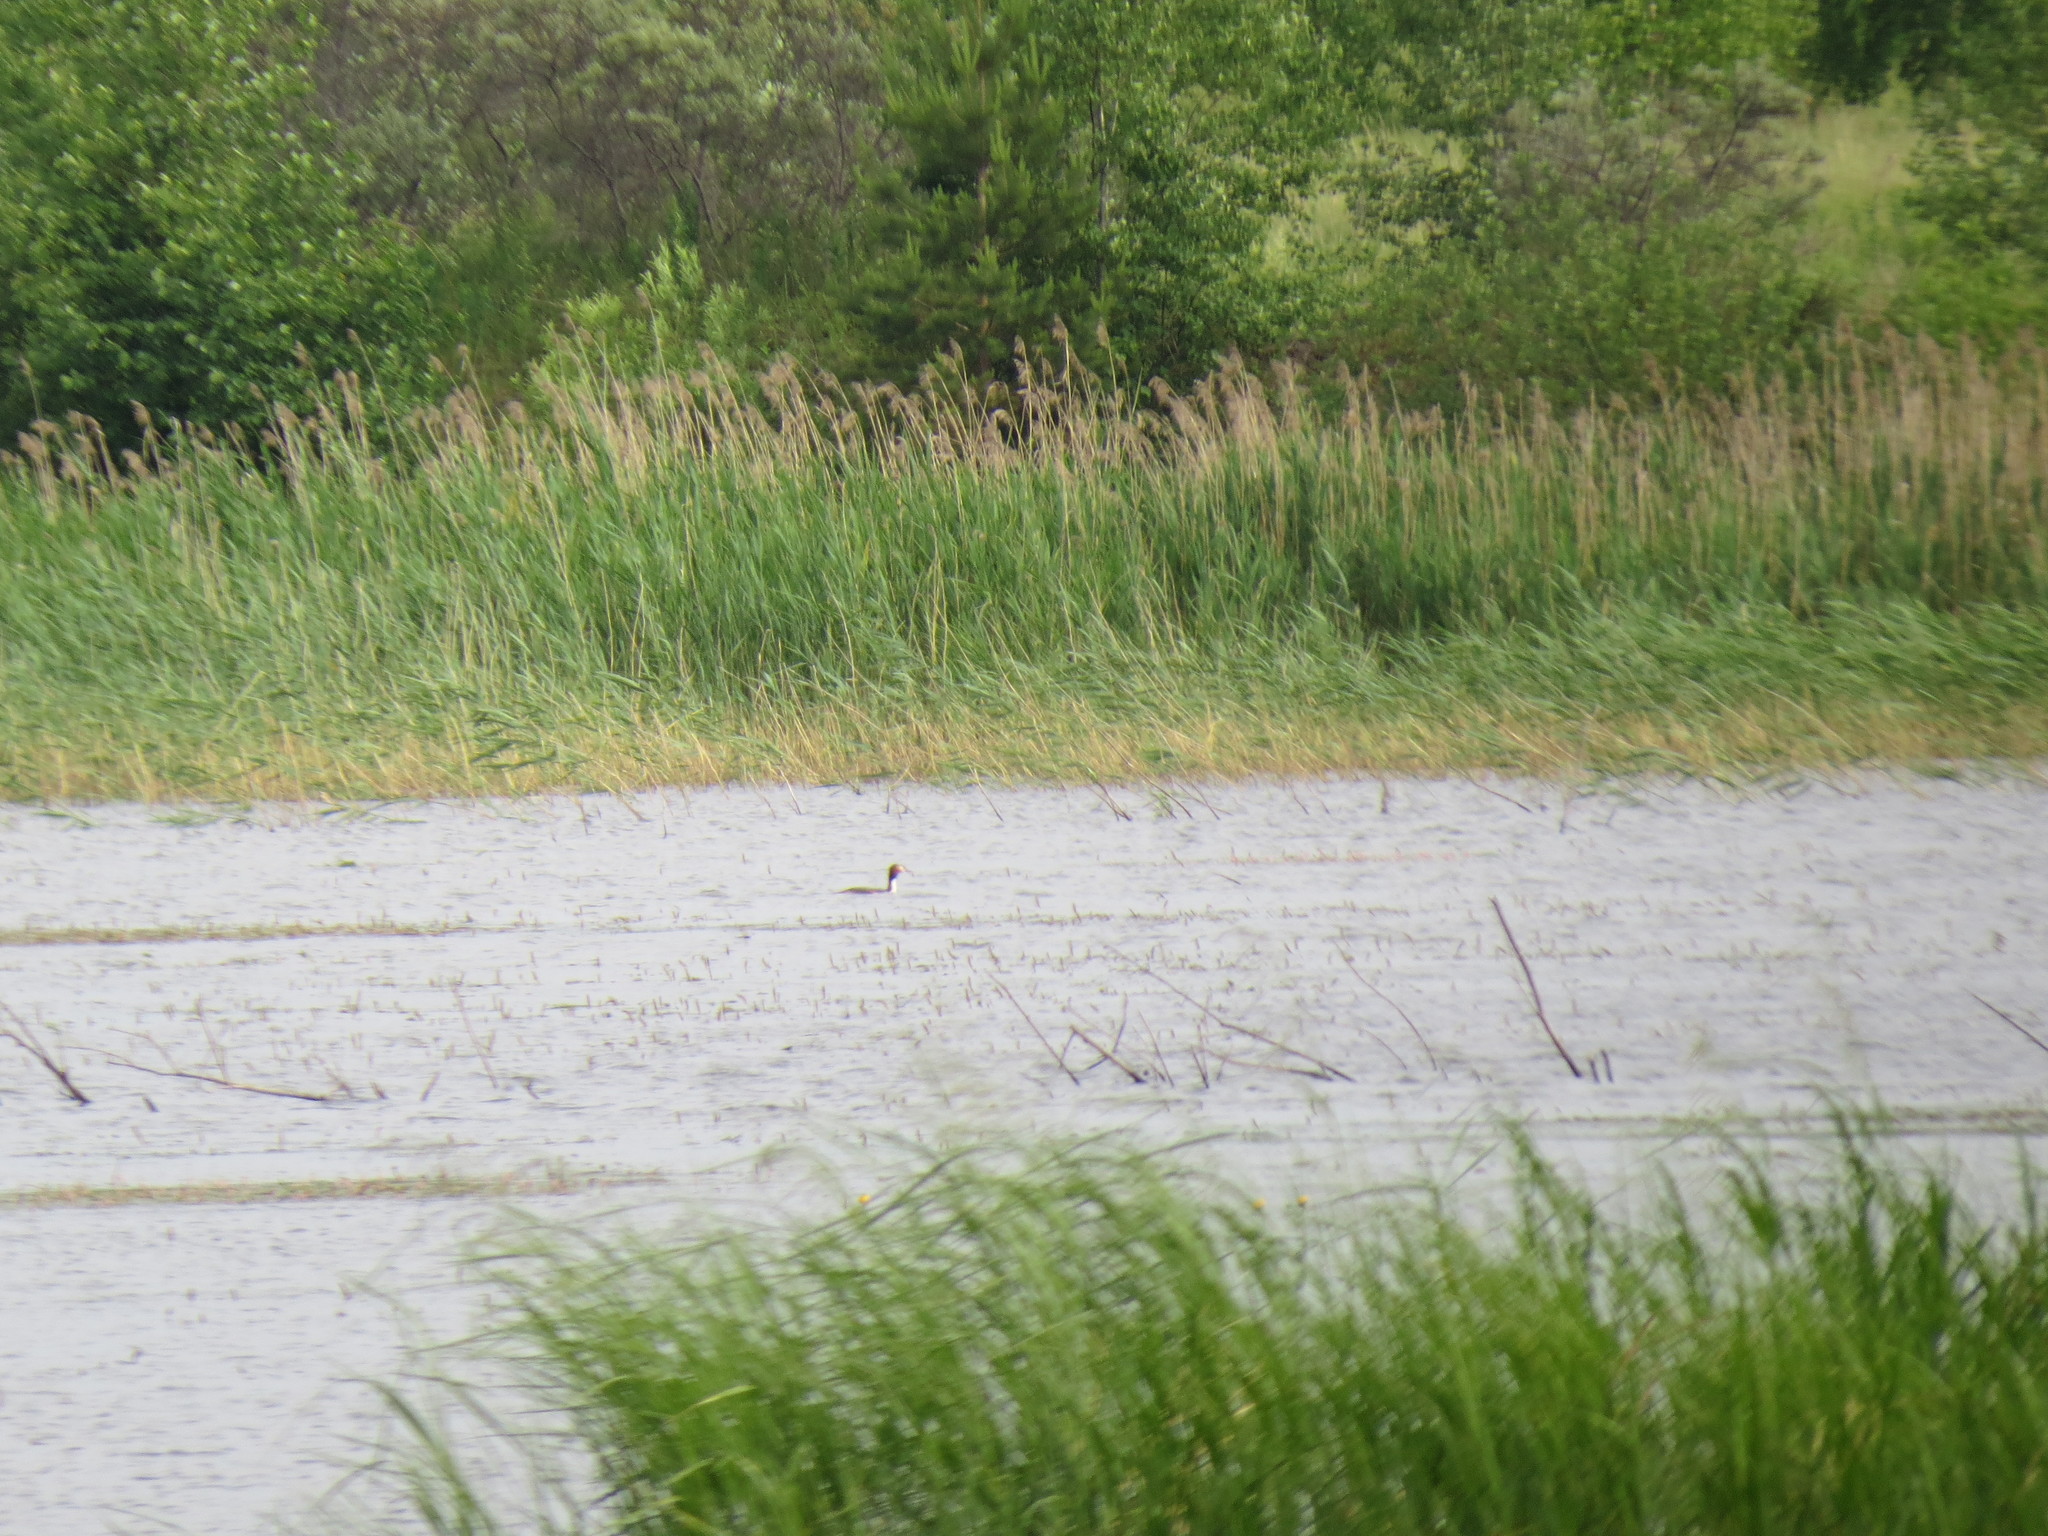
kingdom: Animalia
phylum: Chordata
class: Aves
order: Podicipediformes
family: Podicipedidae
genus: Podiceps
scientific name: Podiceps cristatus
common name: Great crested grebe
